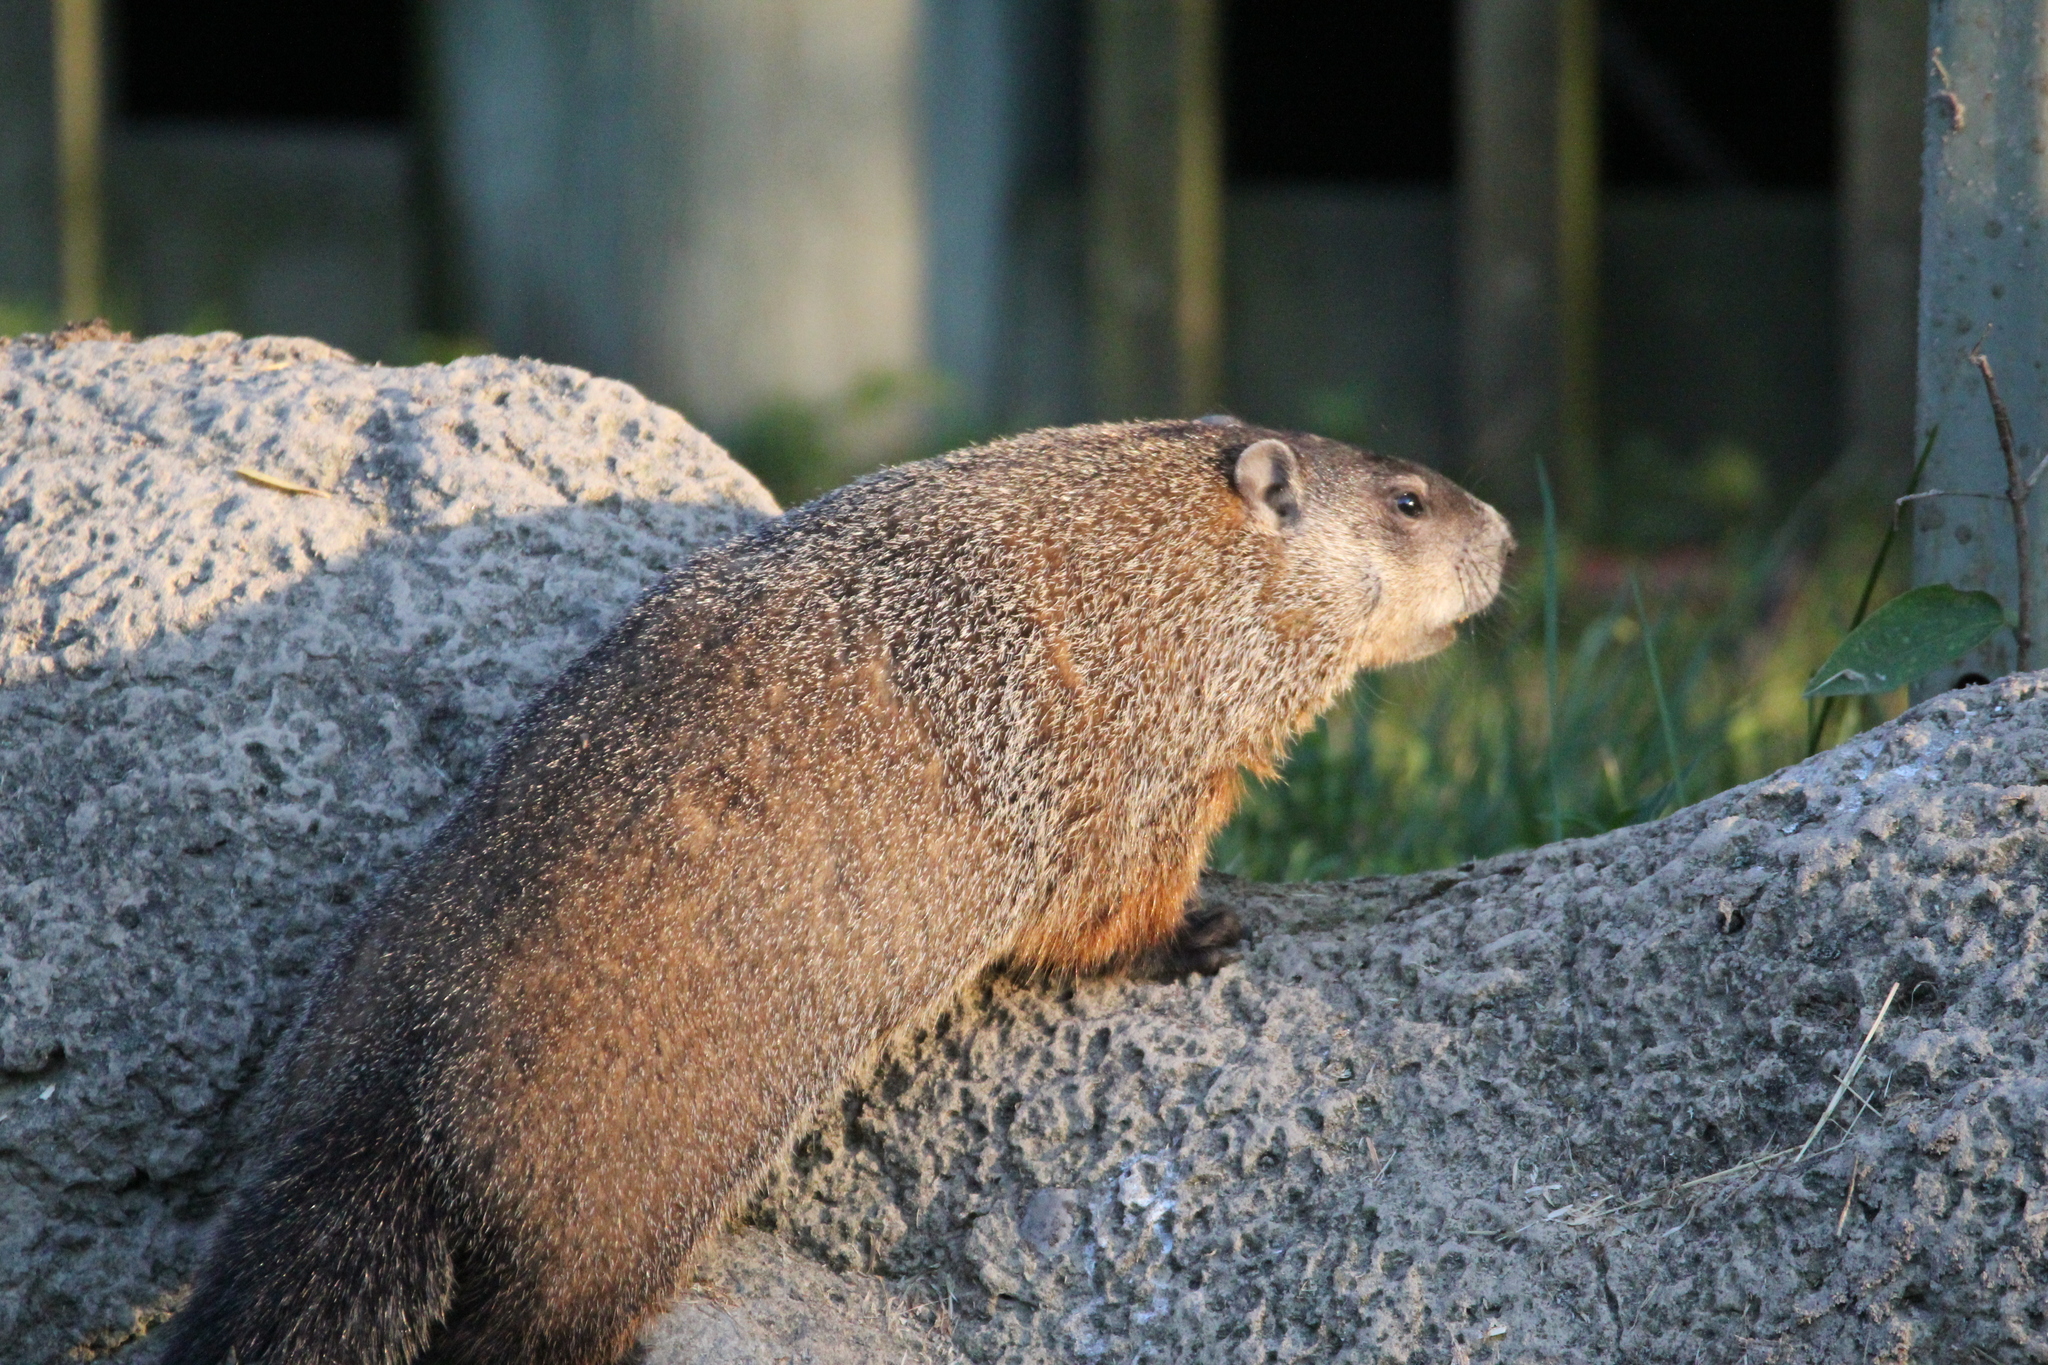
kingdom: Animalia
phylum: Chordata
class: Mammalia
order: Rodentia
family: Sciuridae
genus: Marmota
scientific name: Marmota monax
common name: Groundhog
